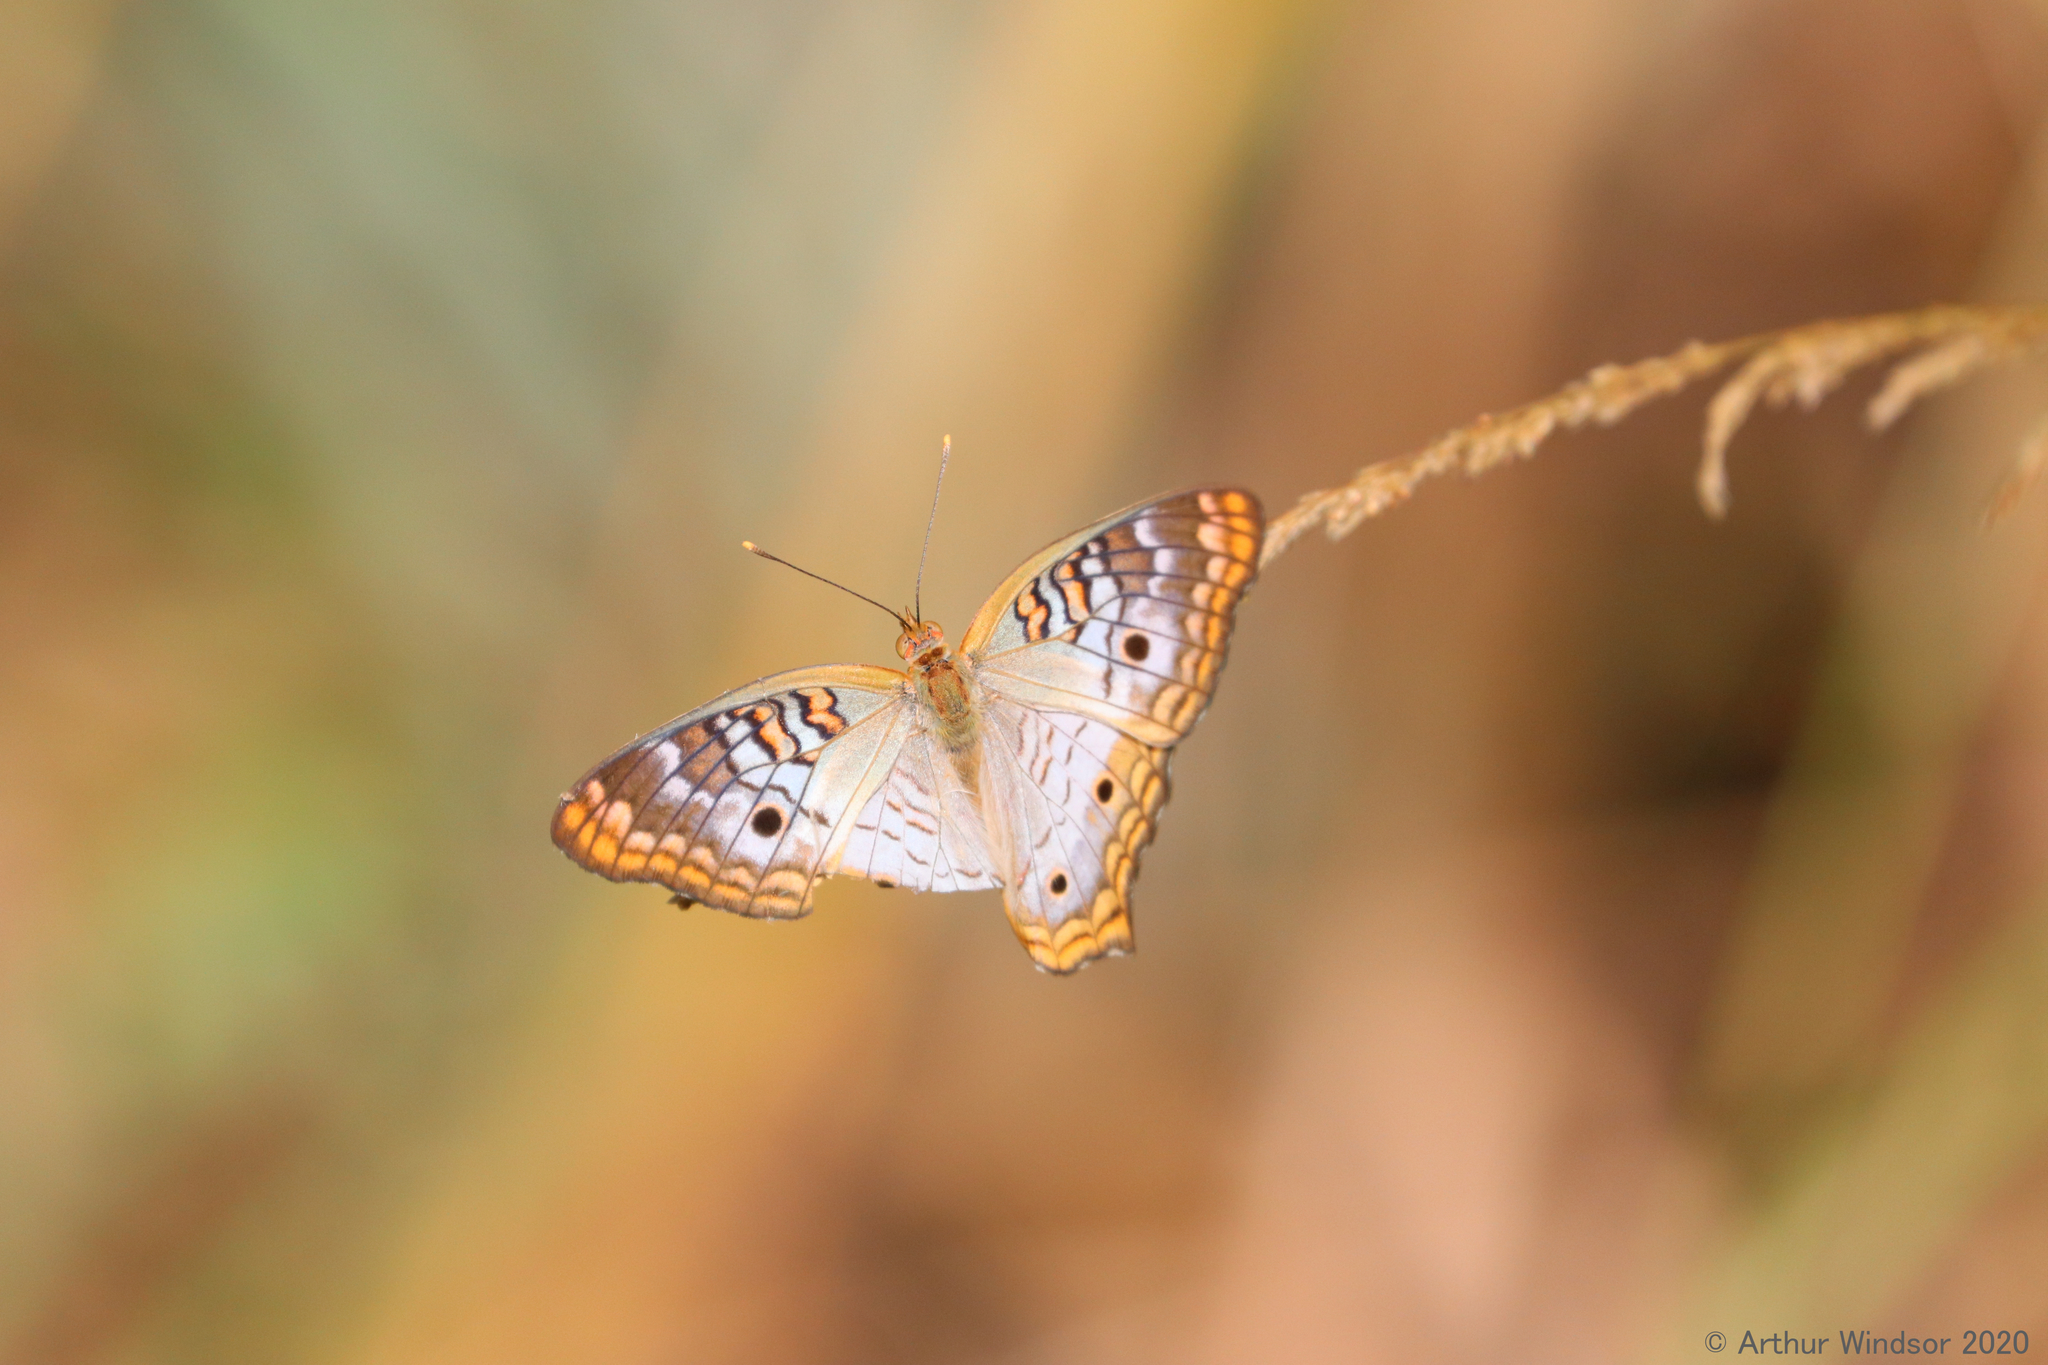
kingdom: Animalia
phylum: Arthropoda
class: Insecta
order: Lepidoptera
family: Nymphalidae
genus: Anartia
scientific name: Anartia jatrophae
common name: White peacock
